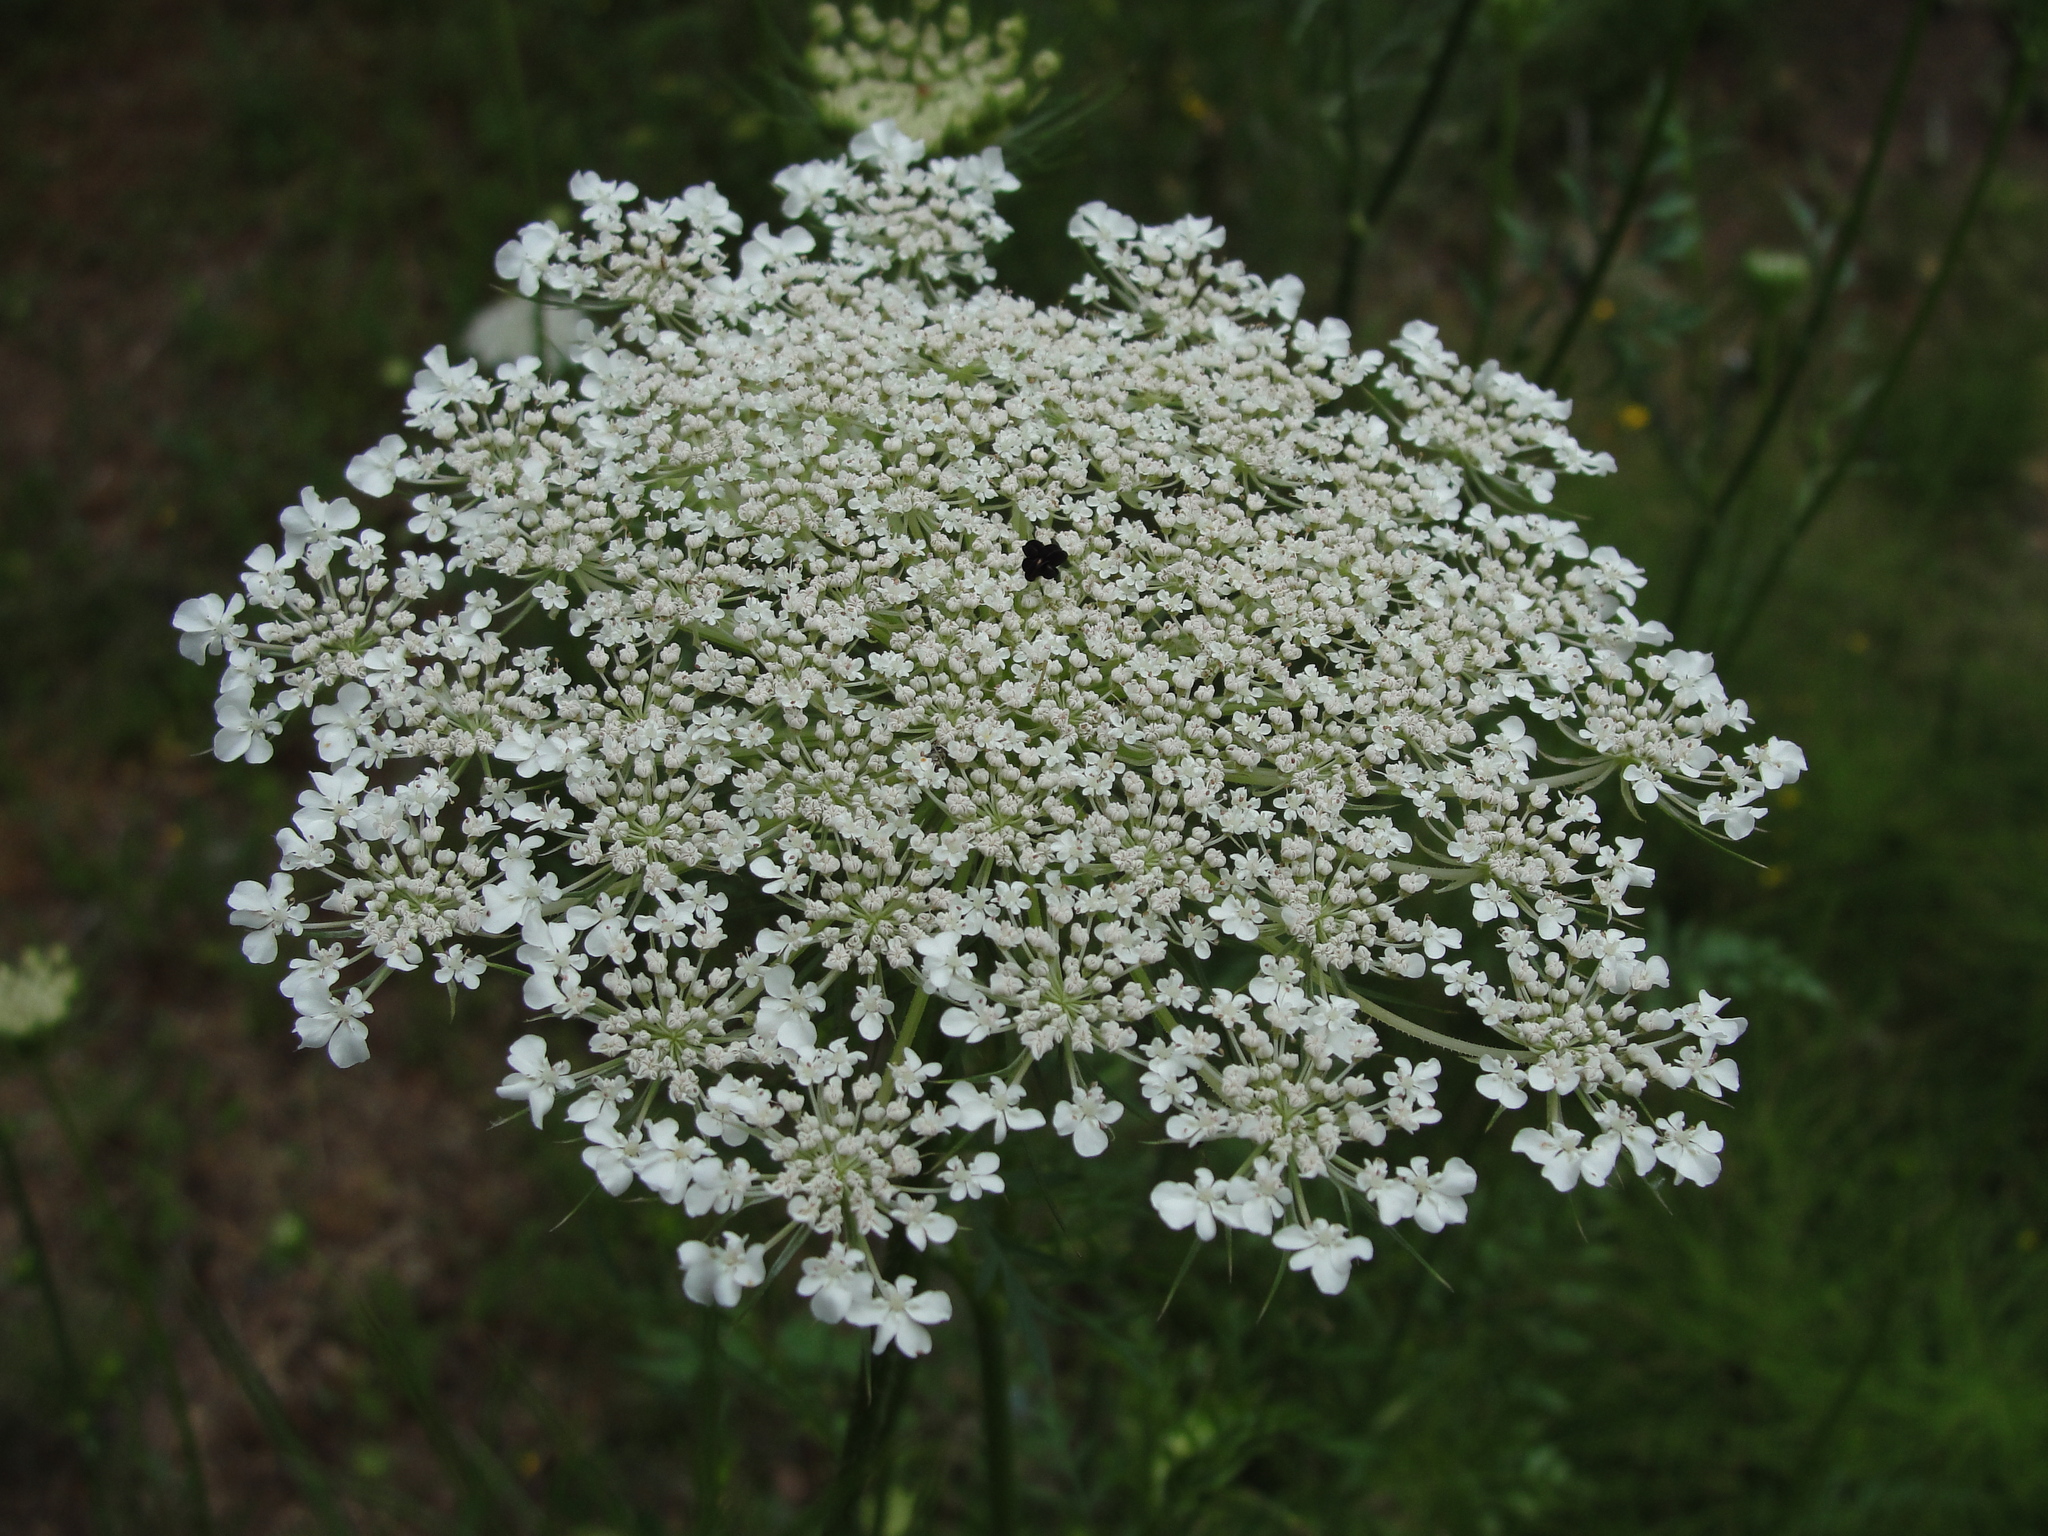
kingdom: Plantae
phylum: Tracheophyta
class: Magnoliopsida
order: Apiales
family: Apiaceae
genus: Daucus
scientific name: Daucus carota
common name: Wild carrot
